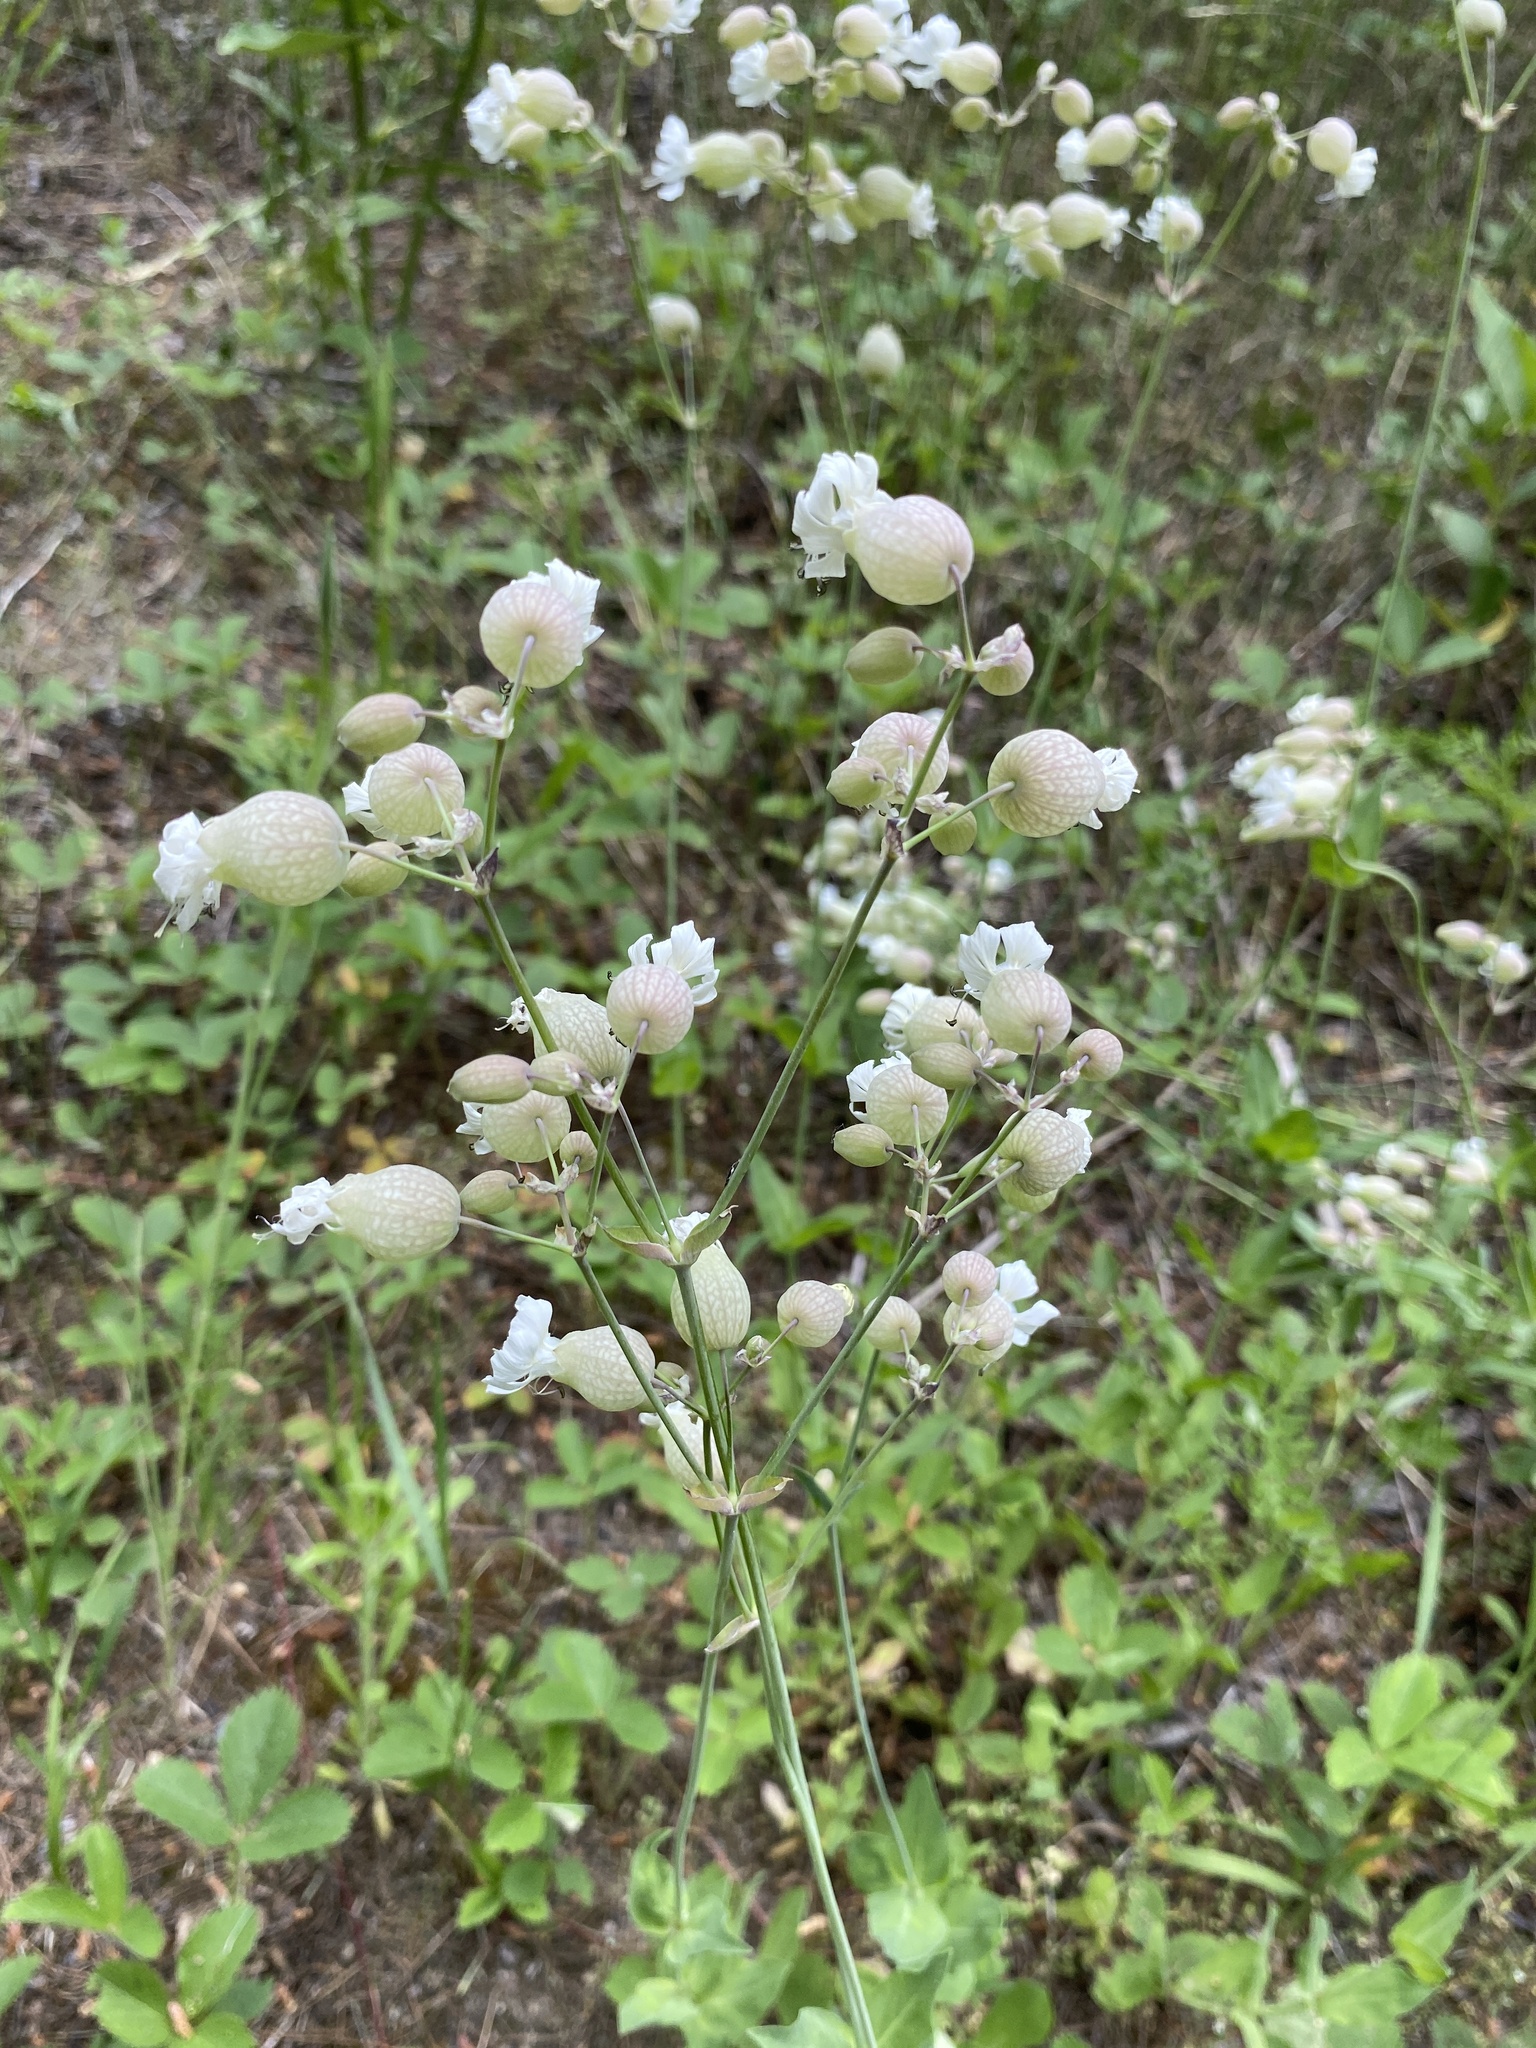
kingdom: Plantae
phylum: Tracheophyta
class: Magnoliopsida
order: Caryophyllales
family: Caryophyllaceae
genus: Silene
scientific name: Silene vulgaris
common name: Bladder campion
